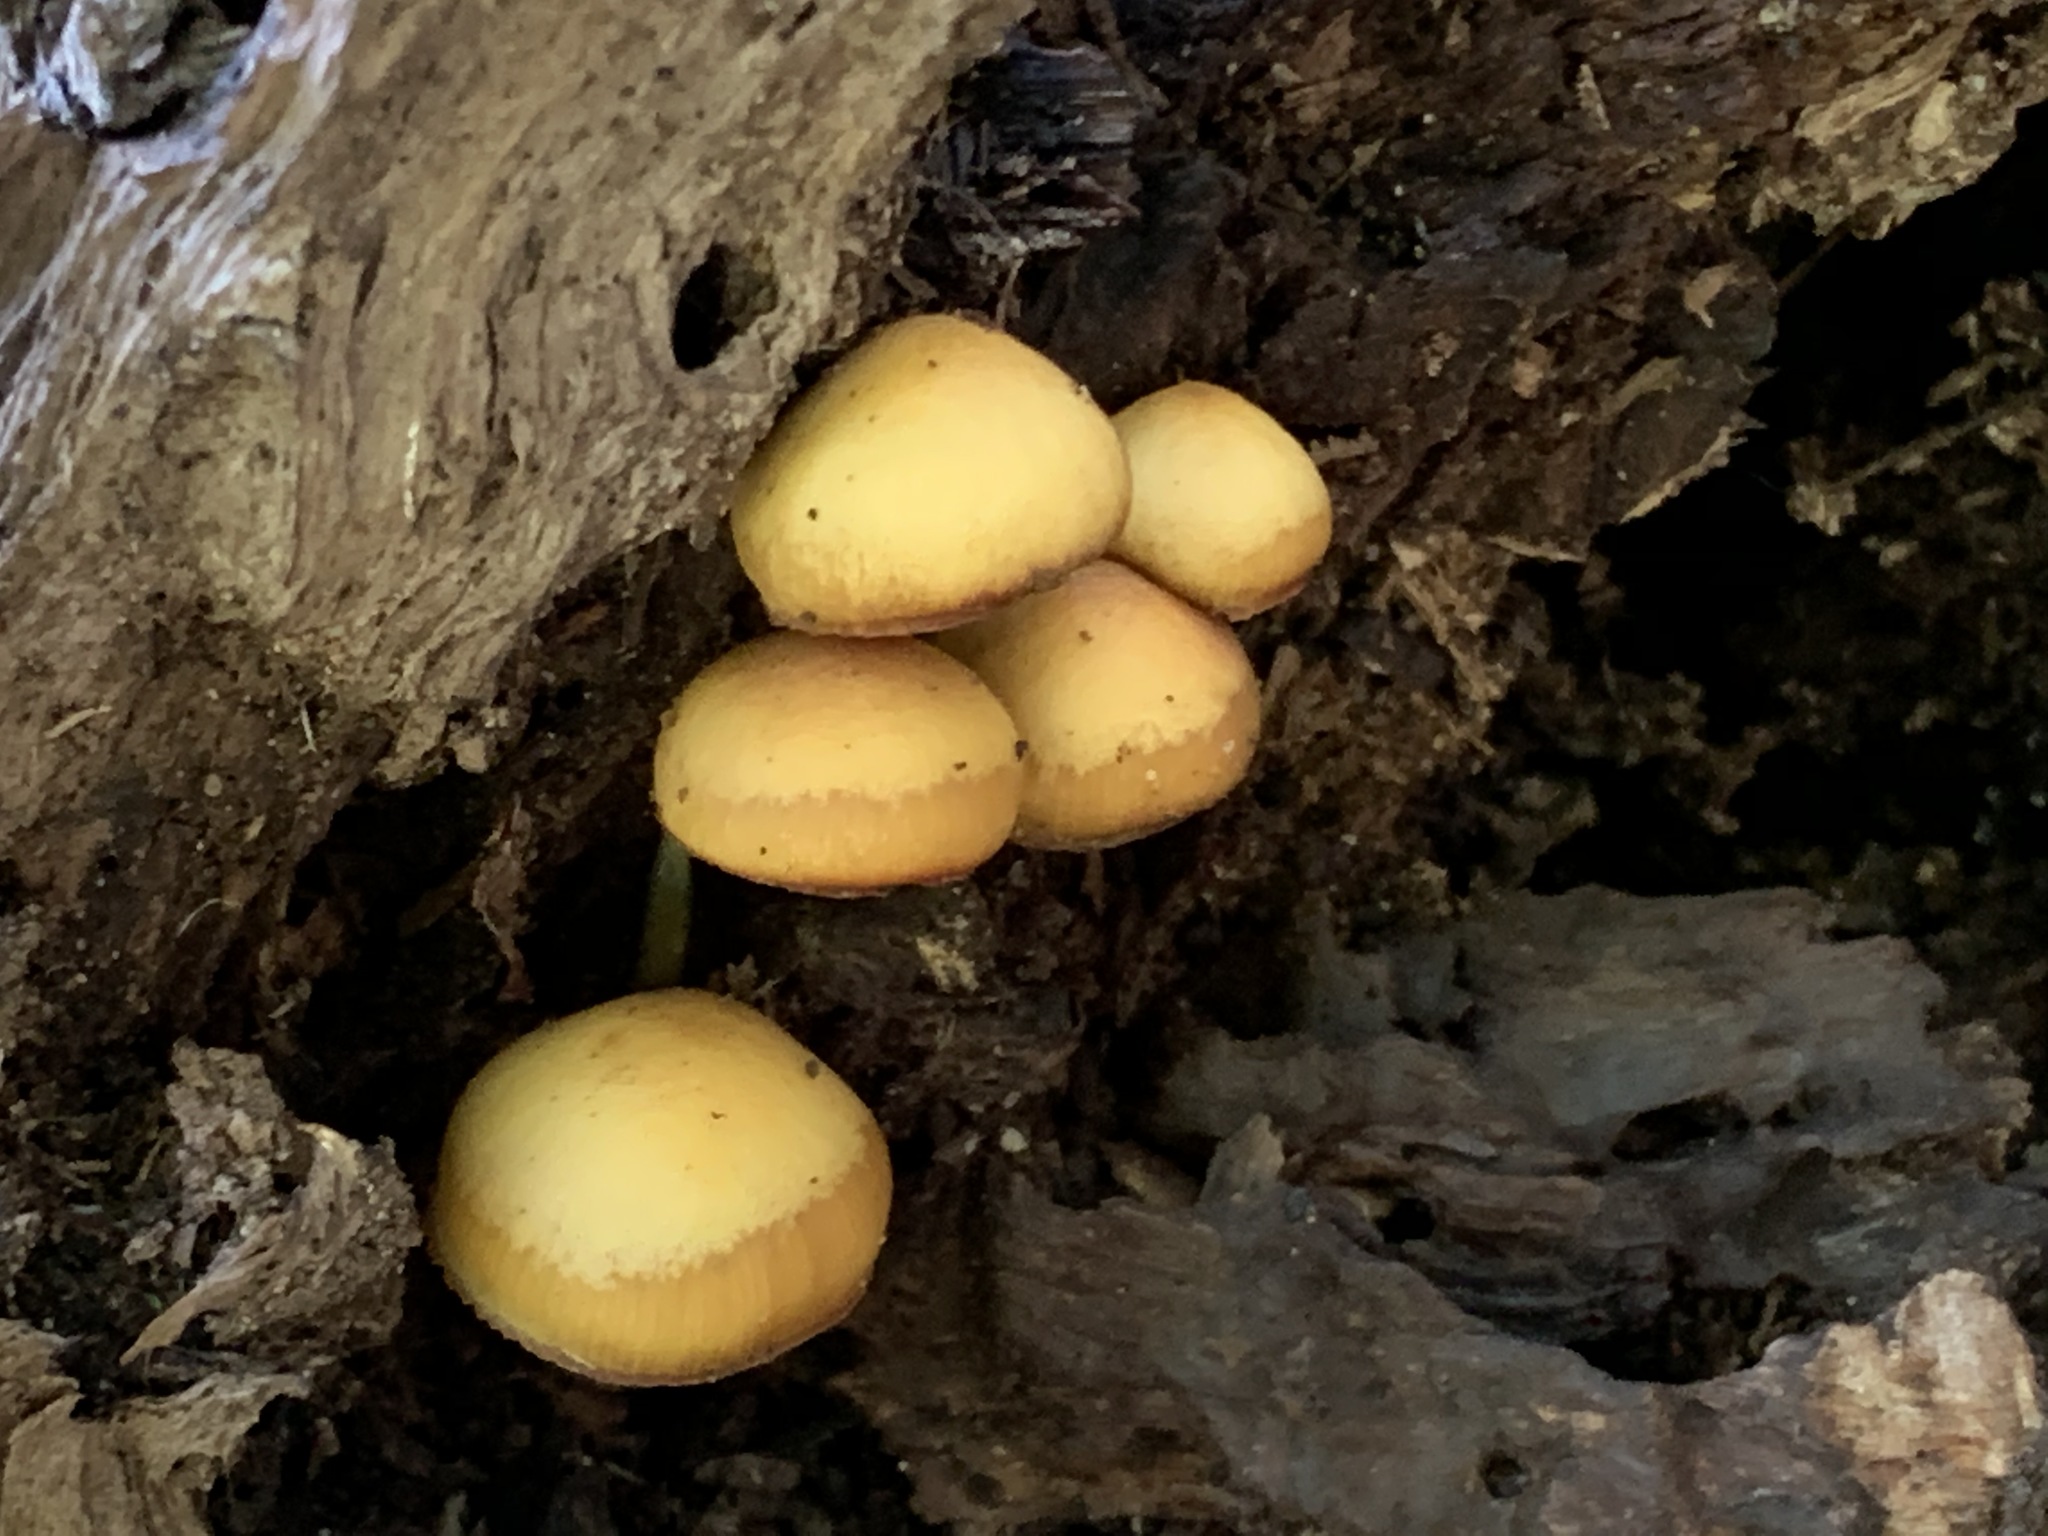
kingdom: Fungi
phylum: Basidiomycota
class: Agaricomycetes
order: Agaricales
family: Hymenogastraceae
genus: Galerina
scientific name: Galerina marginata
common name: Funeral bell
